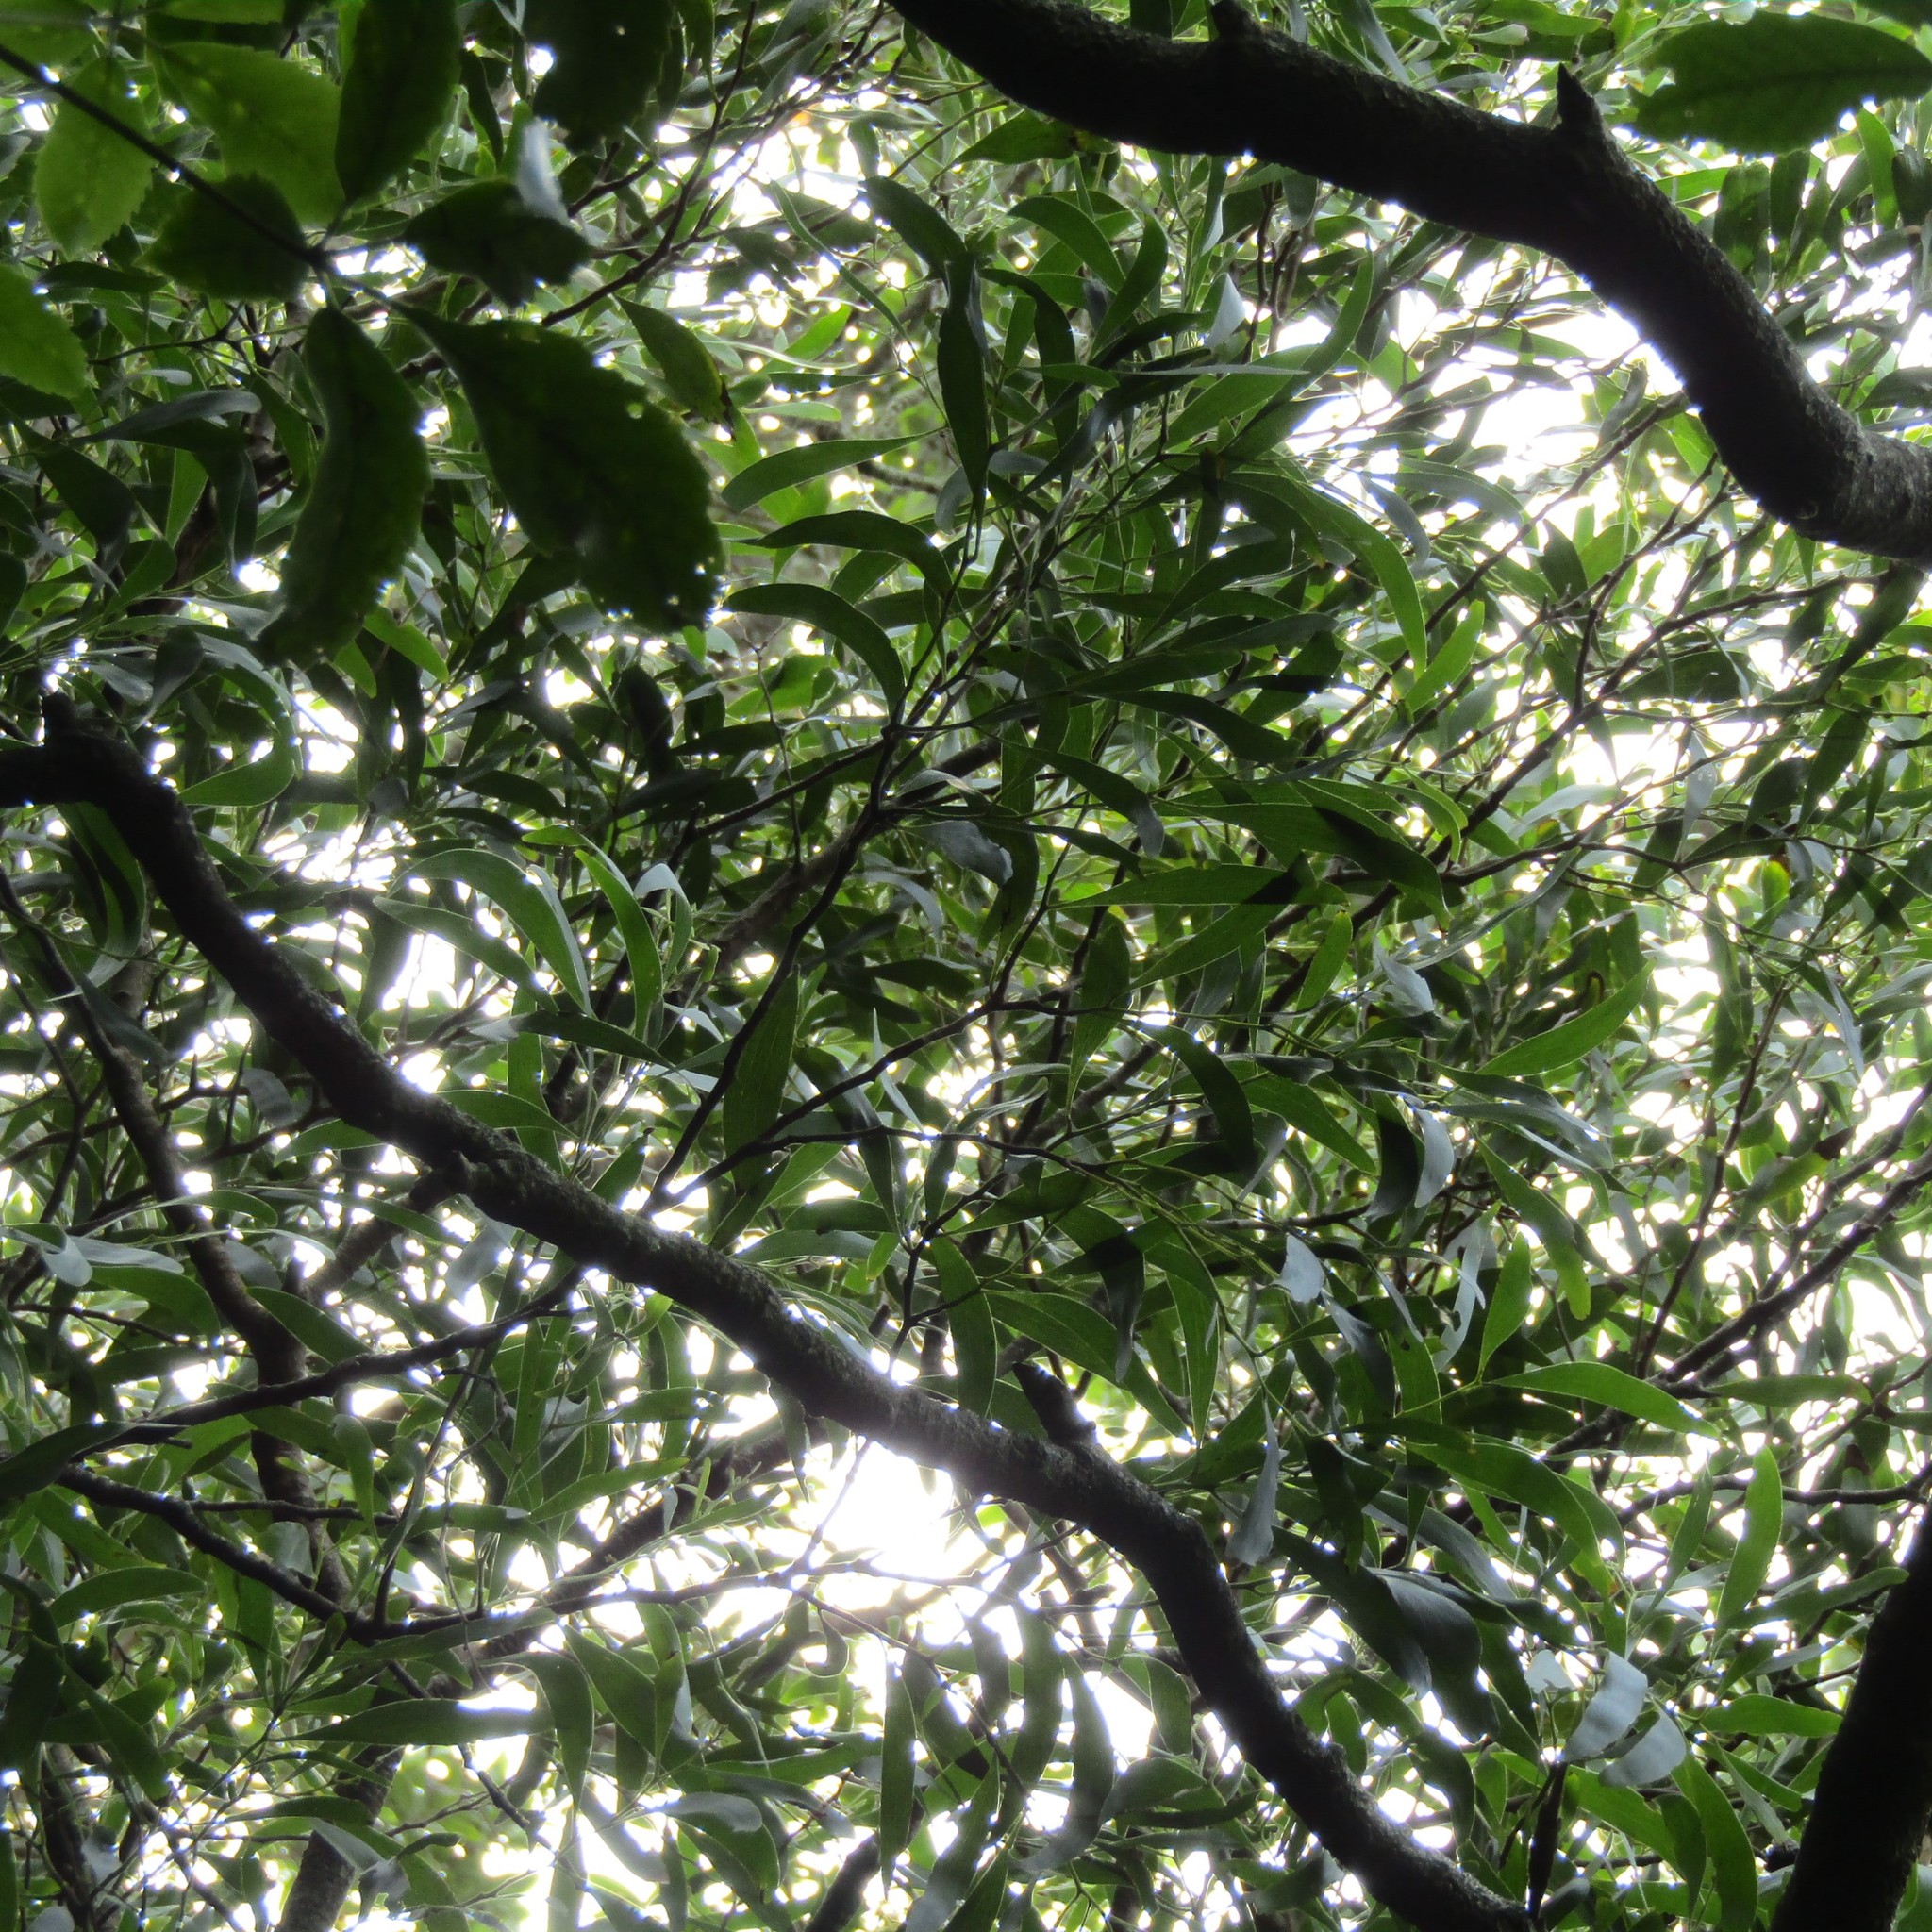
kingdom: Plantae
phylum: Tracheophyta
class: Magnoliopsida
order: Fabales
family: Fabaceae
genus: Acacia
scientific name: Acacia melanoxylon
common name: Blackwood
